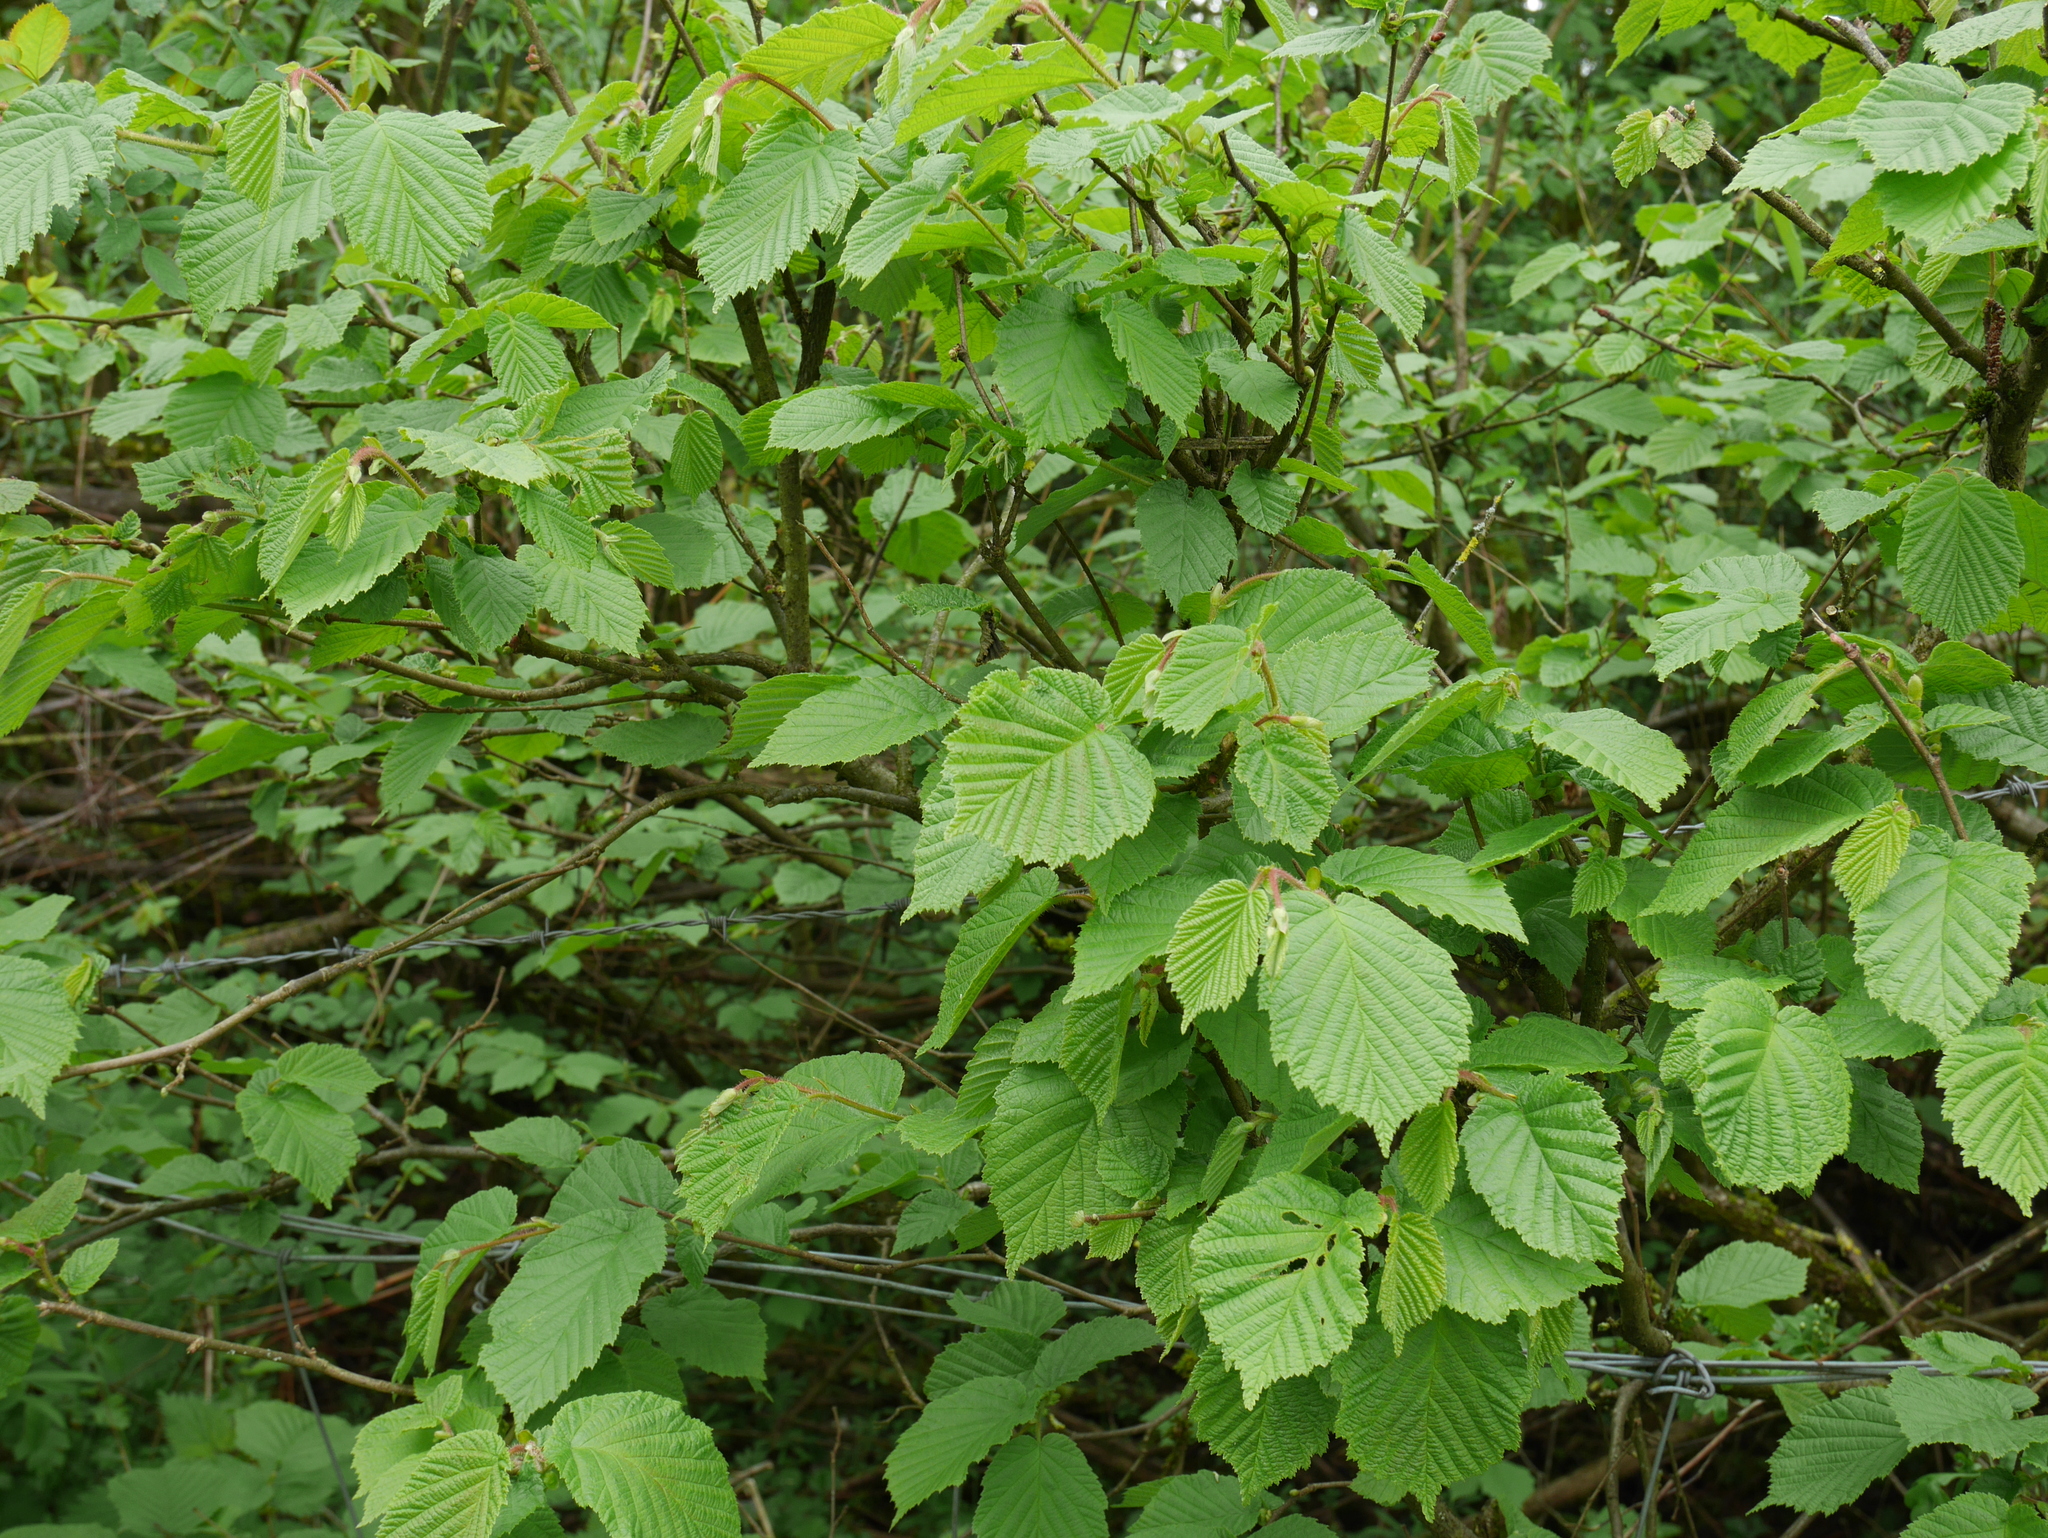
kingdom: Plantae
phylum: Tracheophyta
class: Magnoliopsida
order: Fagales
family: Betulaceae
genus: Corylus
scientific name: Corylus avellana
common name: European hazel
